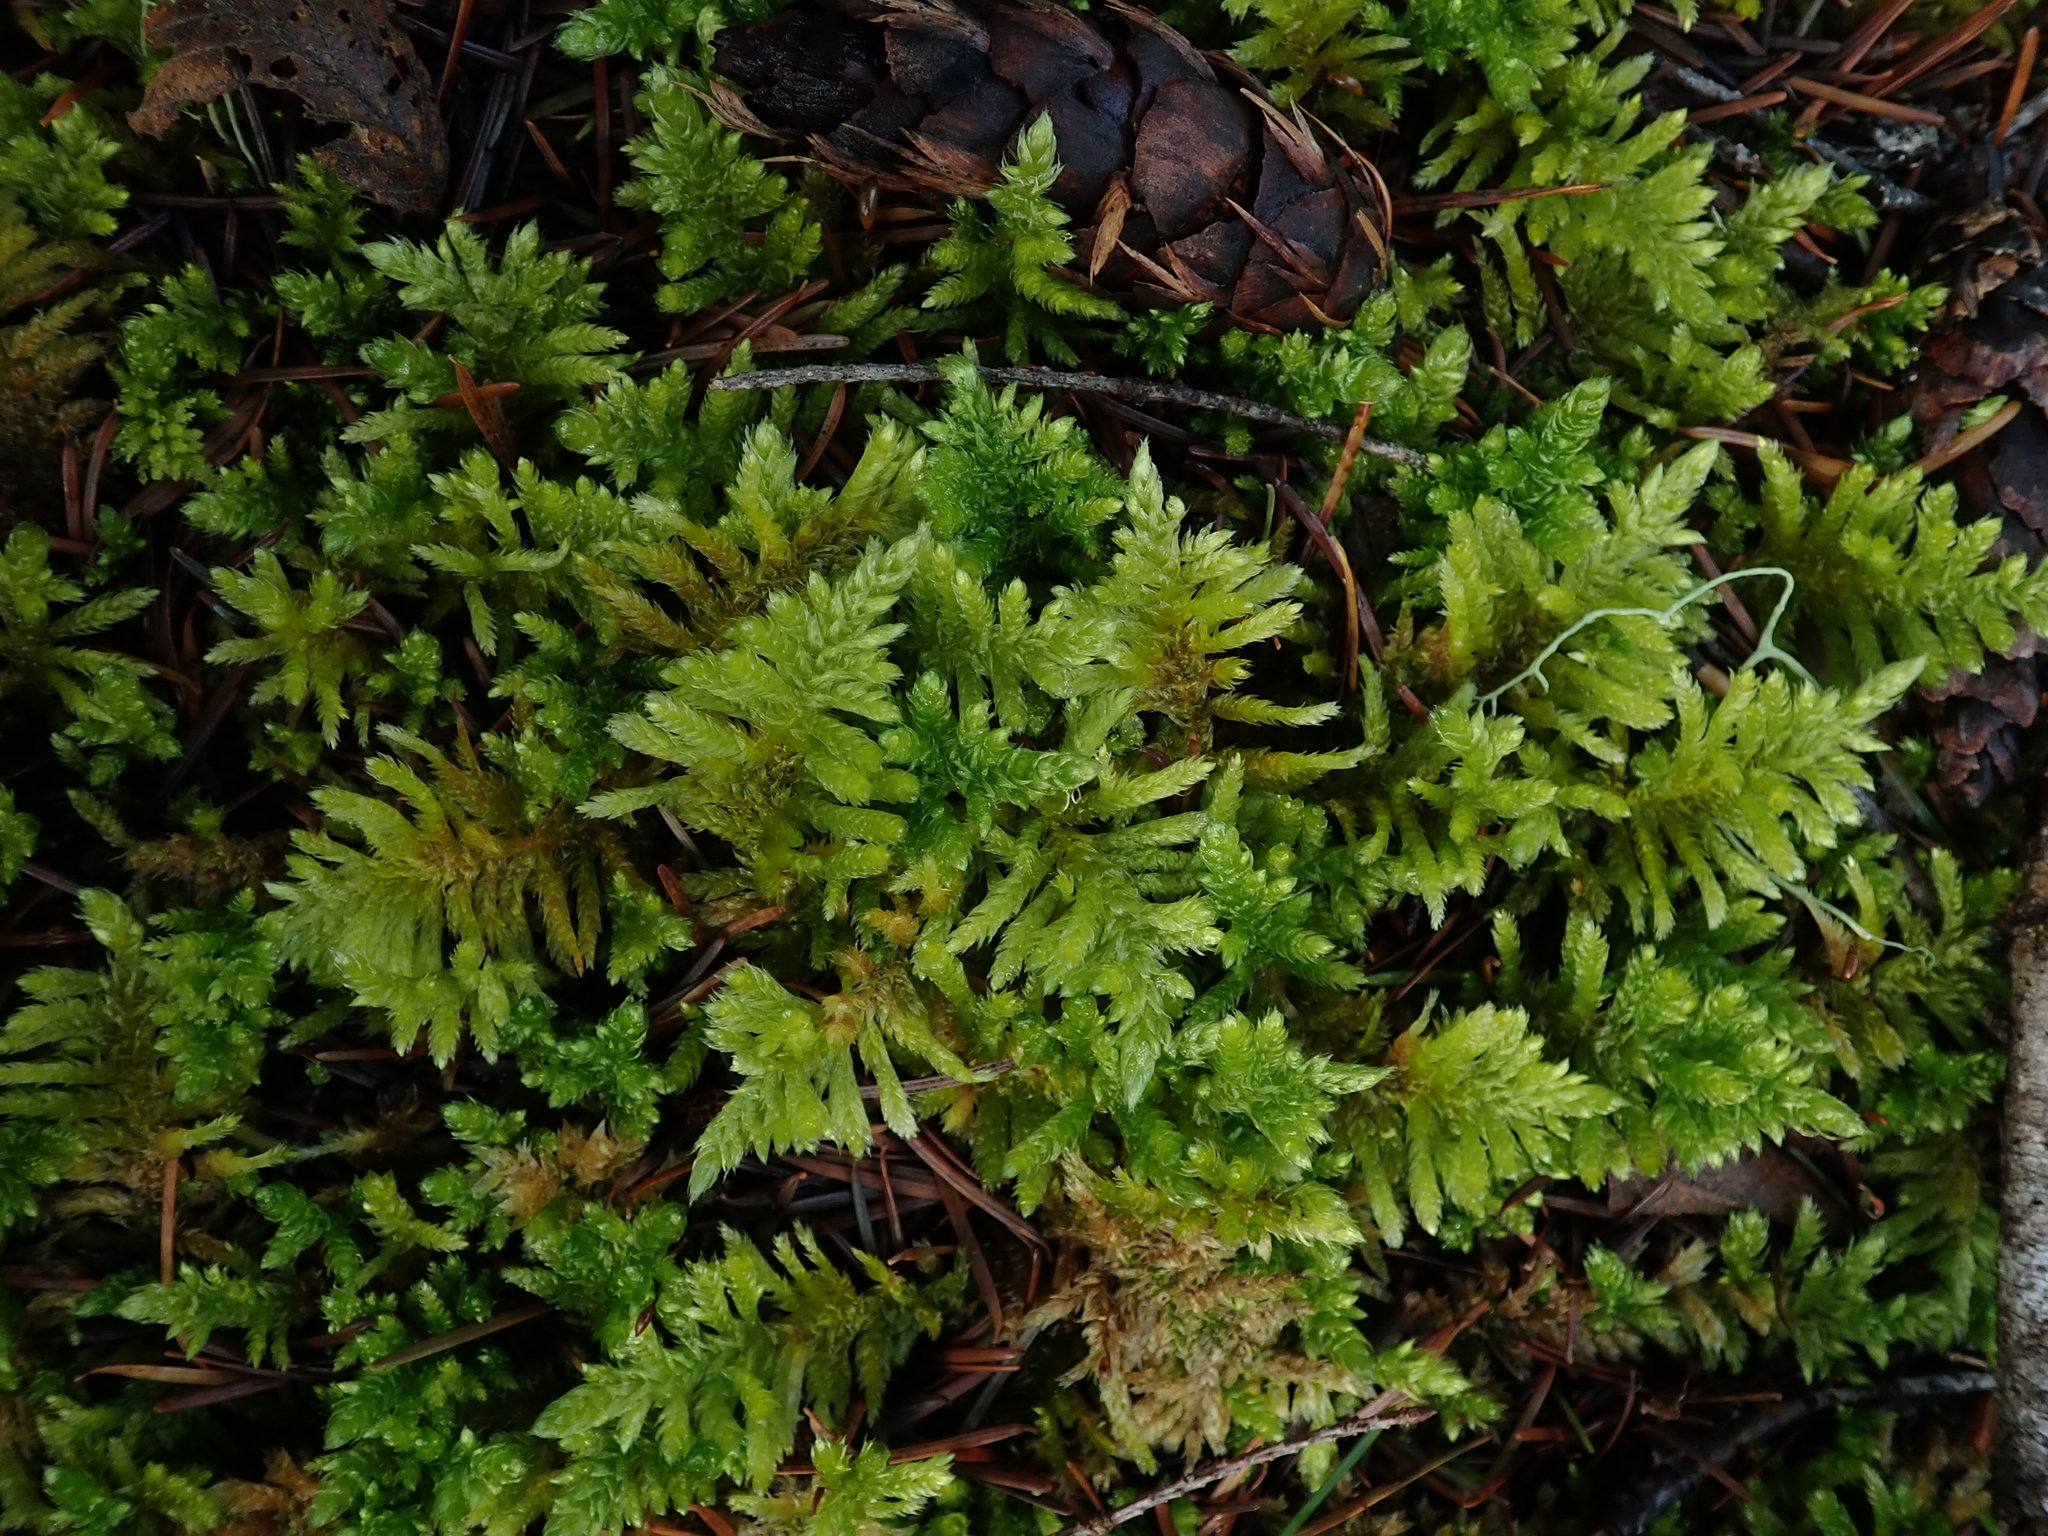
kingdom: Plantae
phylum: Bryophyta
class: Bryopsida
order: Hypnales
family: Brachytheciaceae
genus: Homalothecium
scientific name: Homalothecium megaptilum
